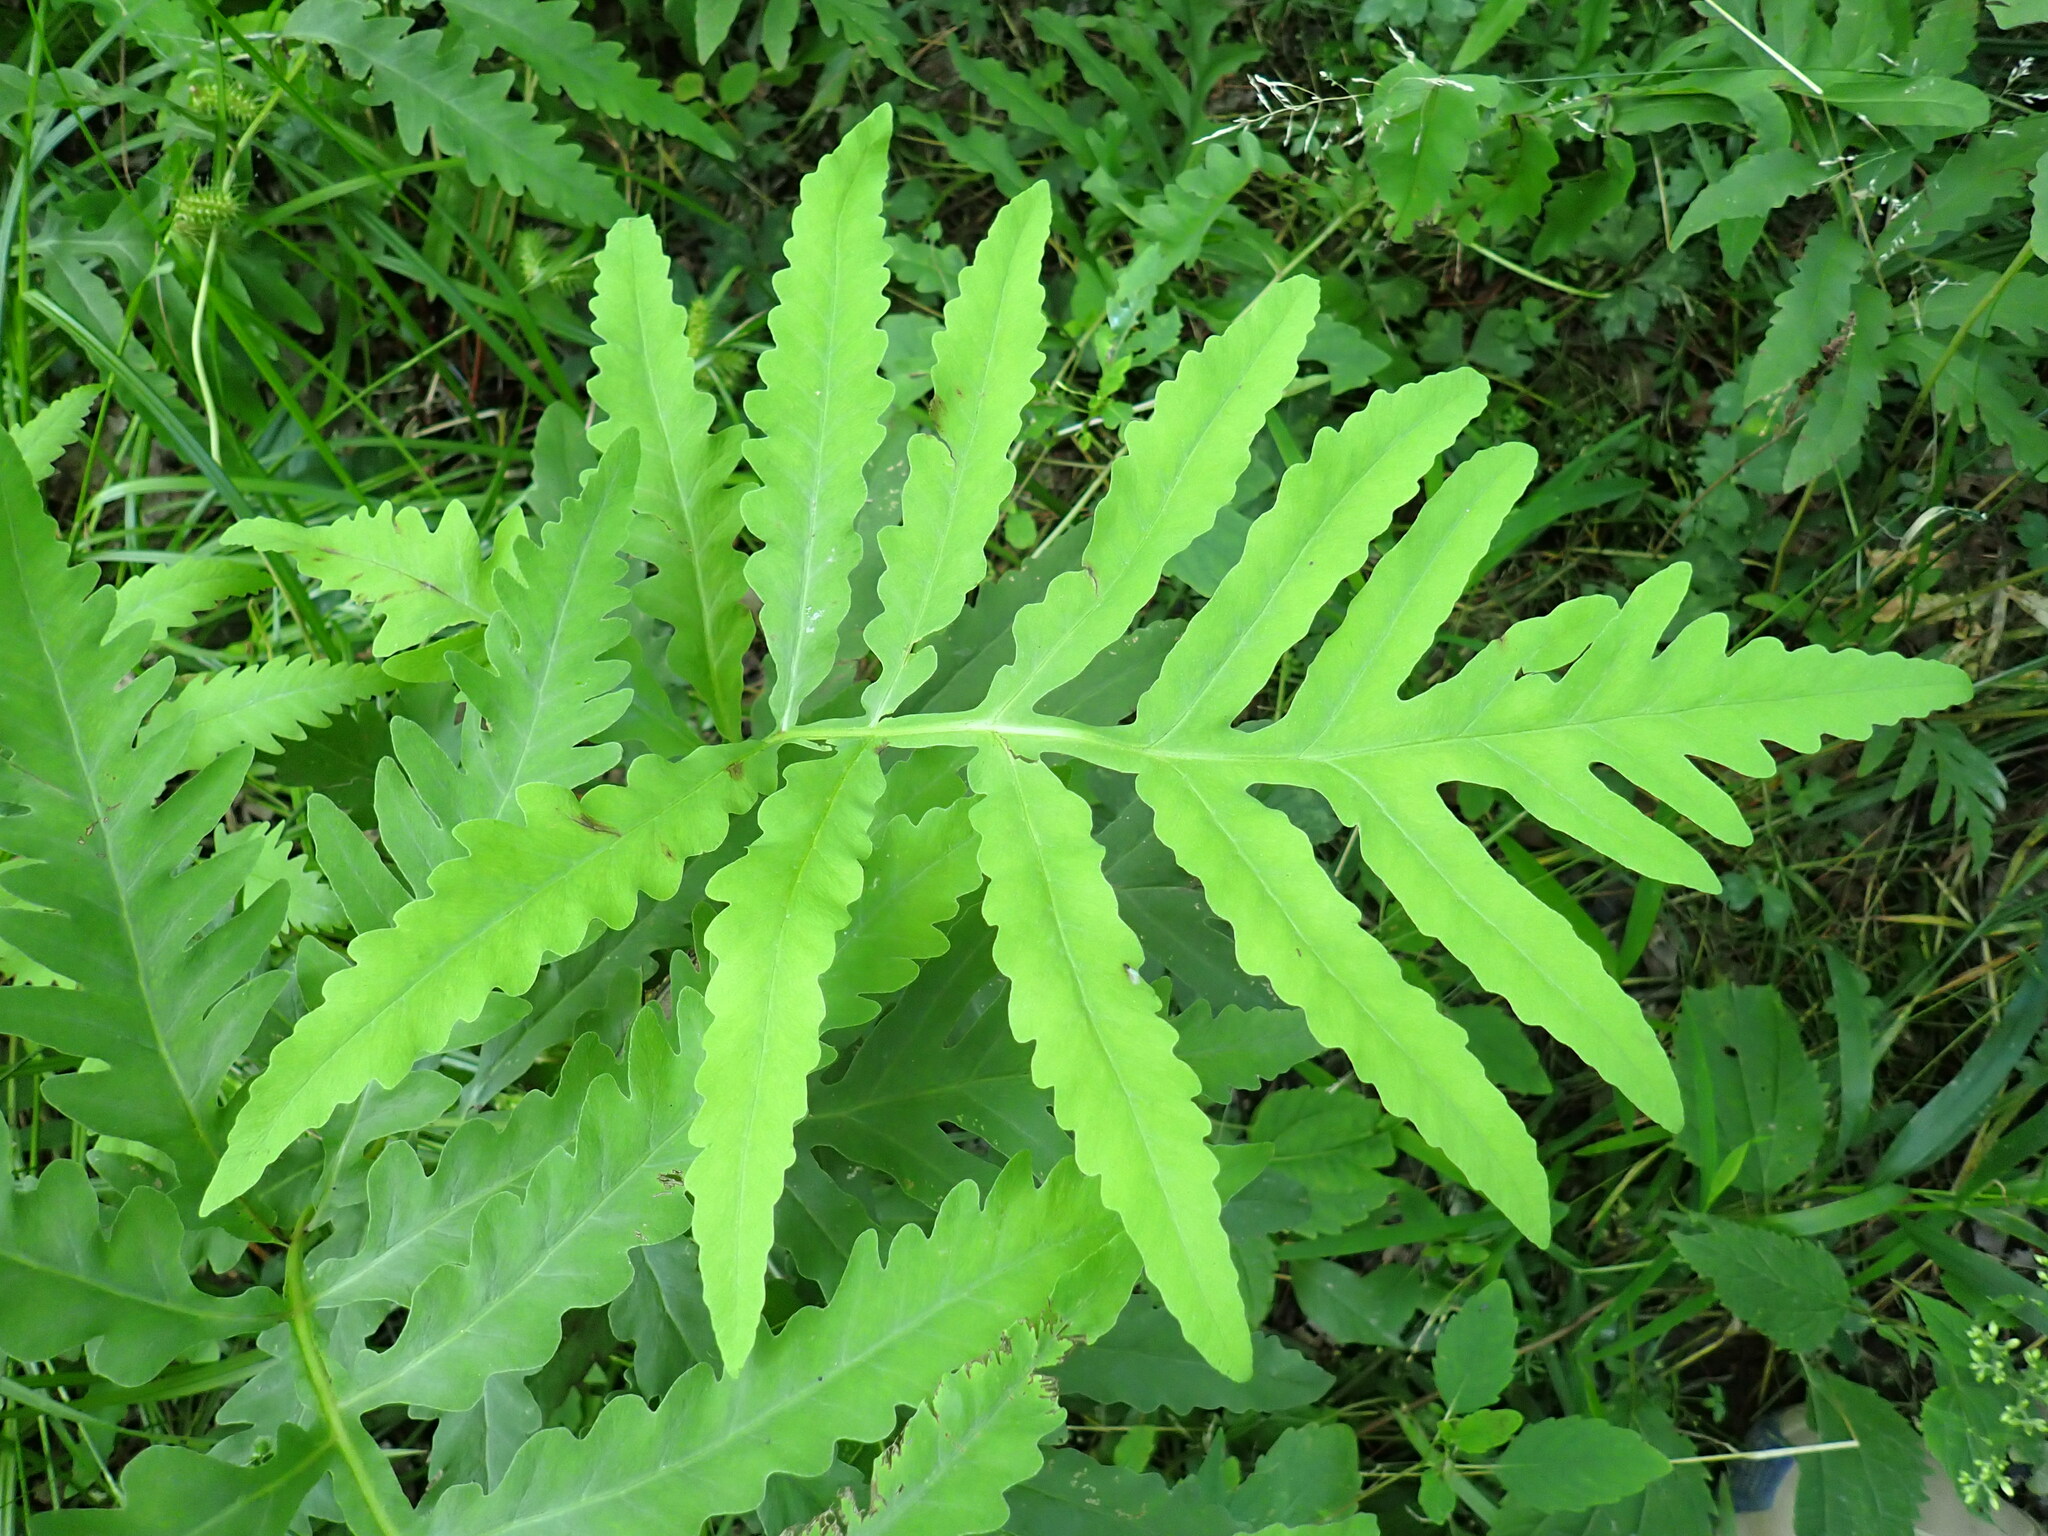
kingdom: Plantae
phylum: Tracheophyta
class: Polypodiopsida
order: Polypodiales
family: Onocleaceae
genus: Onoclea
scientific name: Onoclea sensibilis
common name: Sensitive fern
